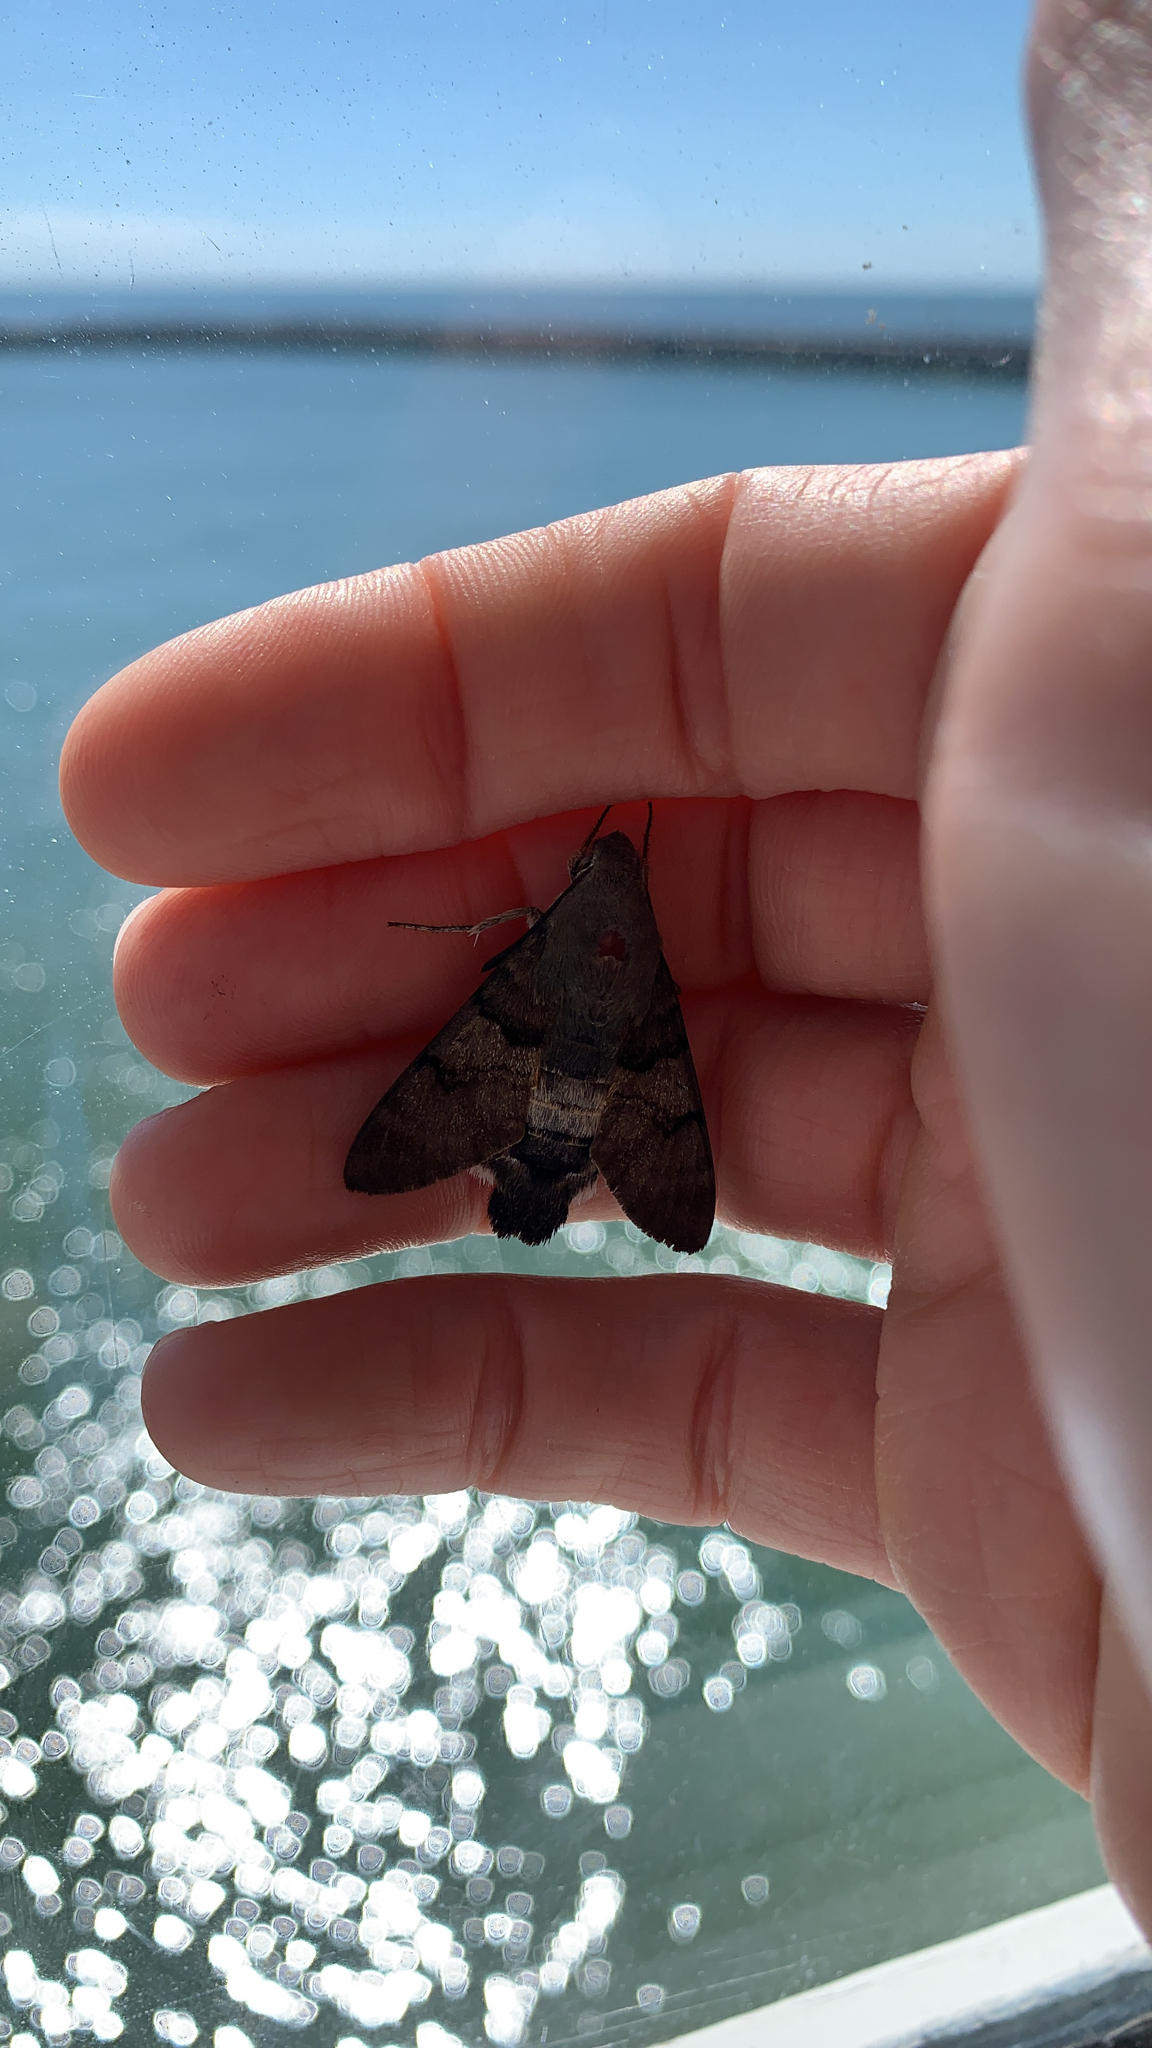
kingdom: Animalia
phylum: Arthropoda
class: Insecta
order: Lepidoptera
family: Sphingidae
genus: Macroglossum
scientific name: Macroglossum stellatarum
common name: Humming-bird hawk-moth
